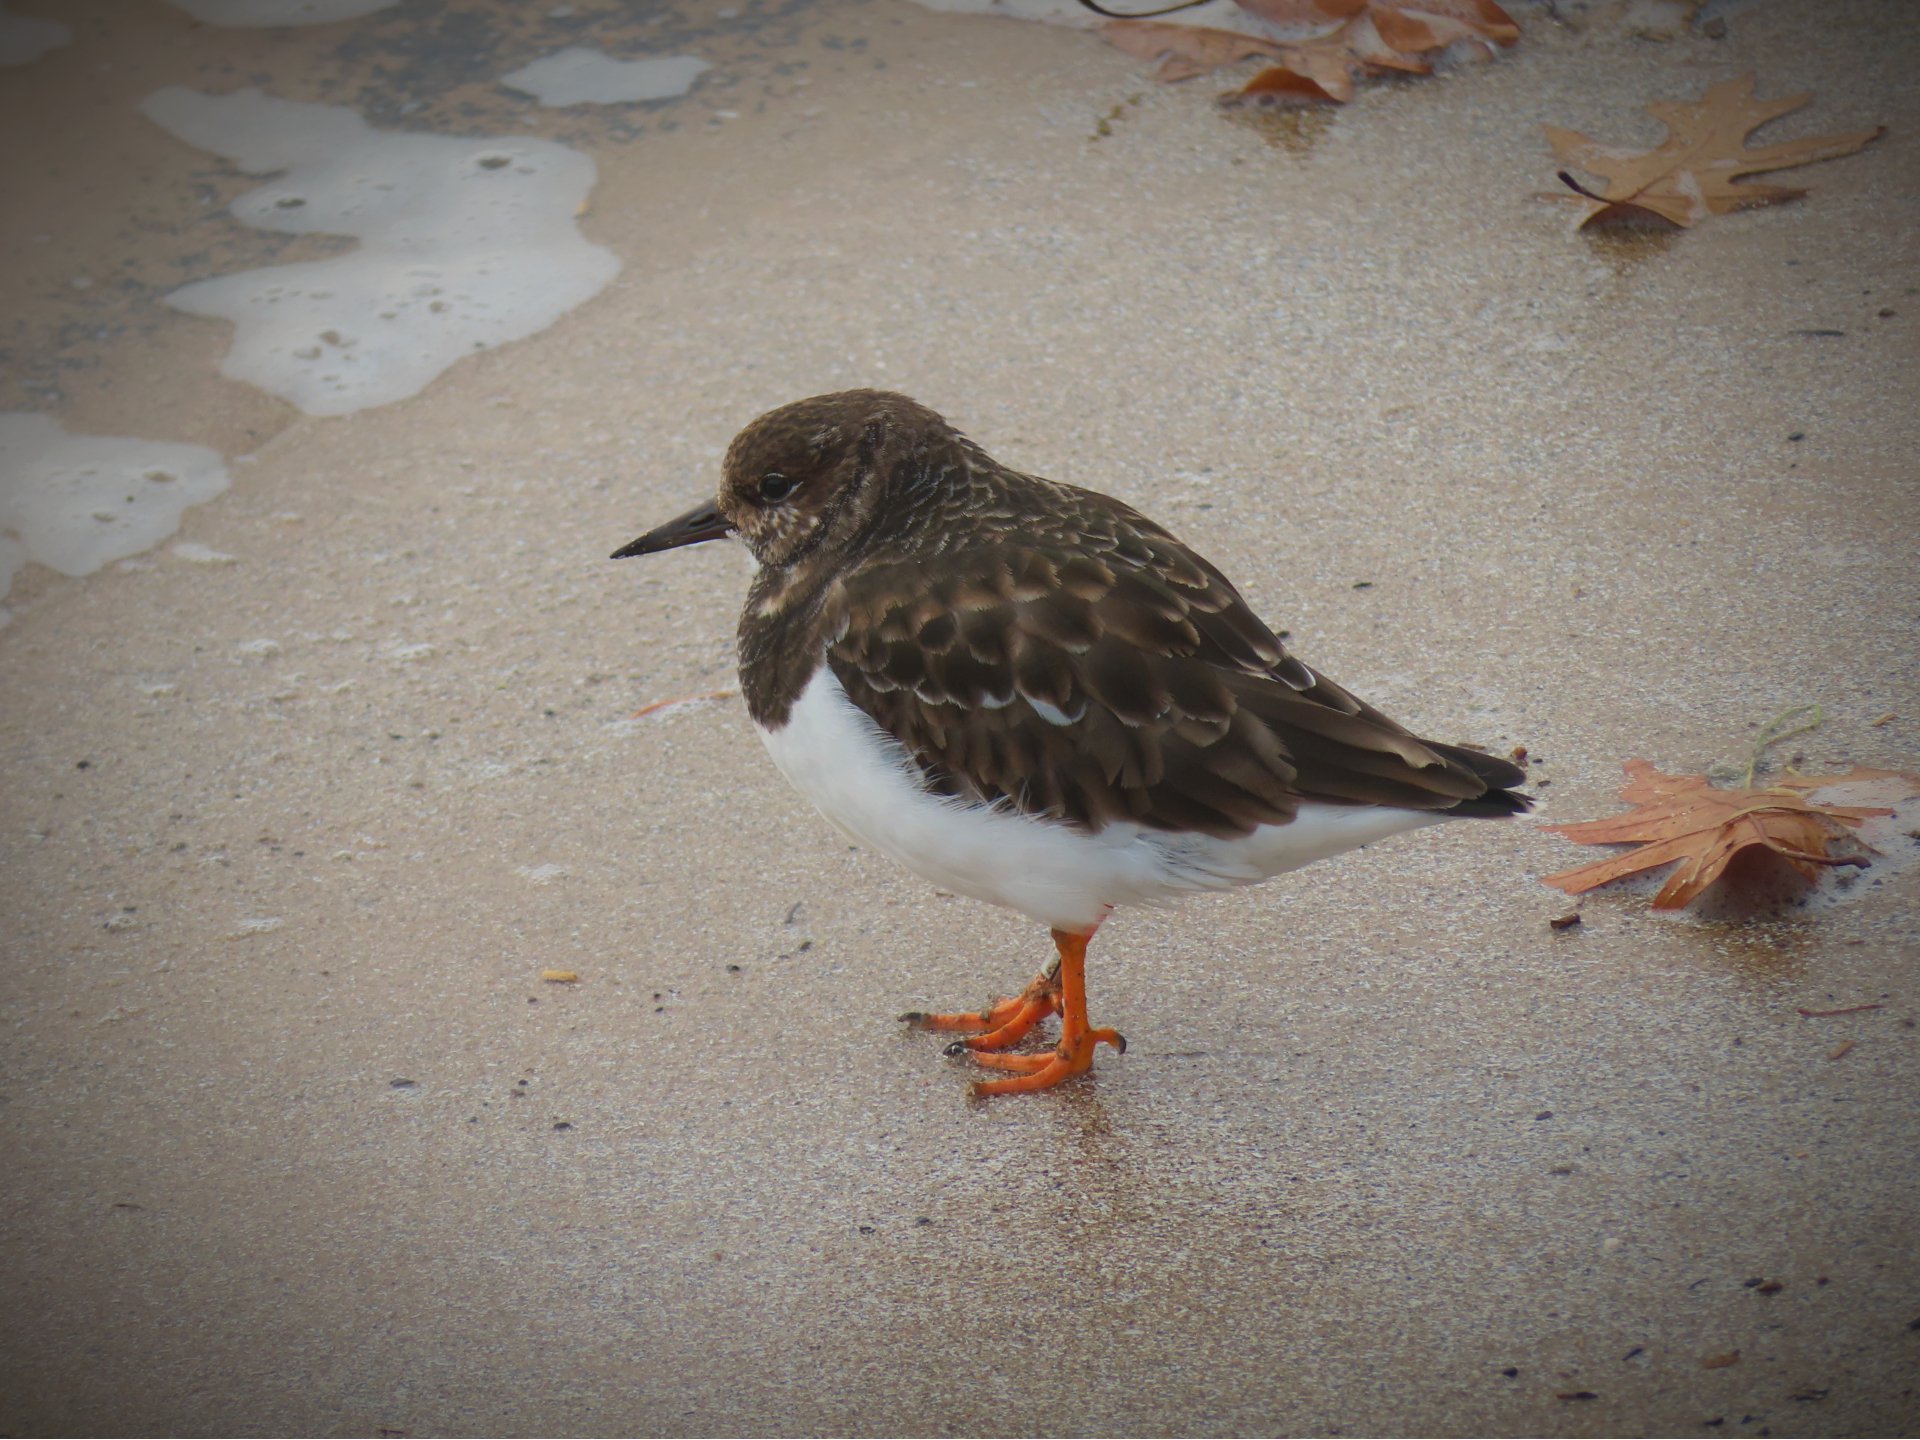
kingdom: Animalia
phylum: Chordata
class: Aves
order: Charadriiformes
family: Scolopacidae
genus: Arenaria
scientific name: Arenaria interpres
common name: Ruddy turnstone
